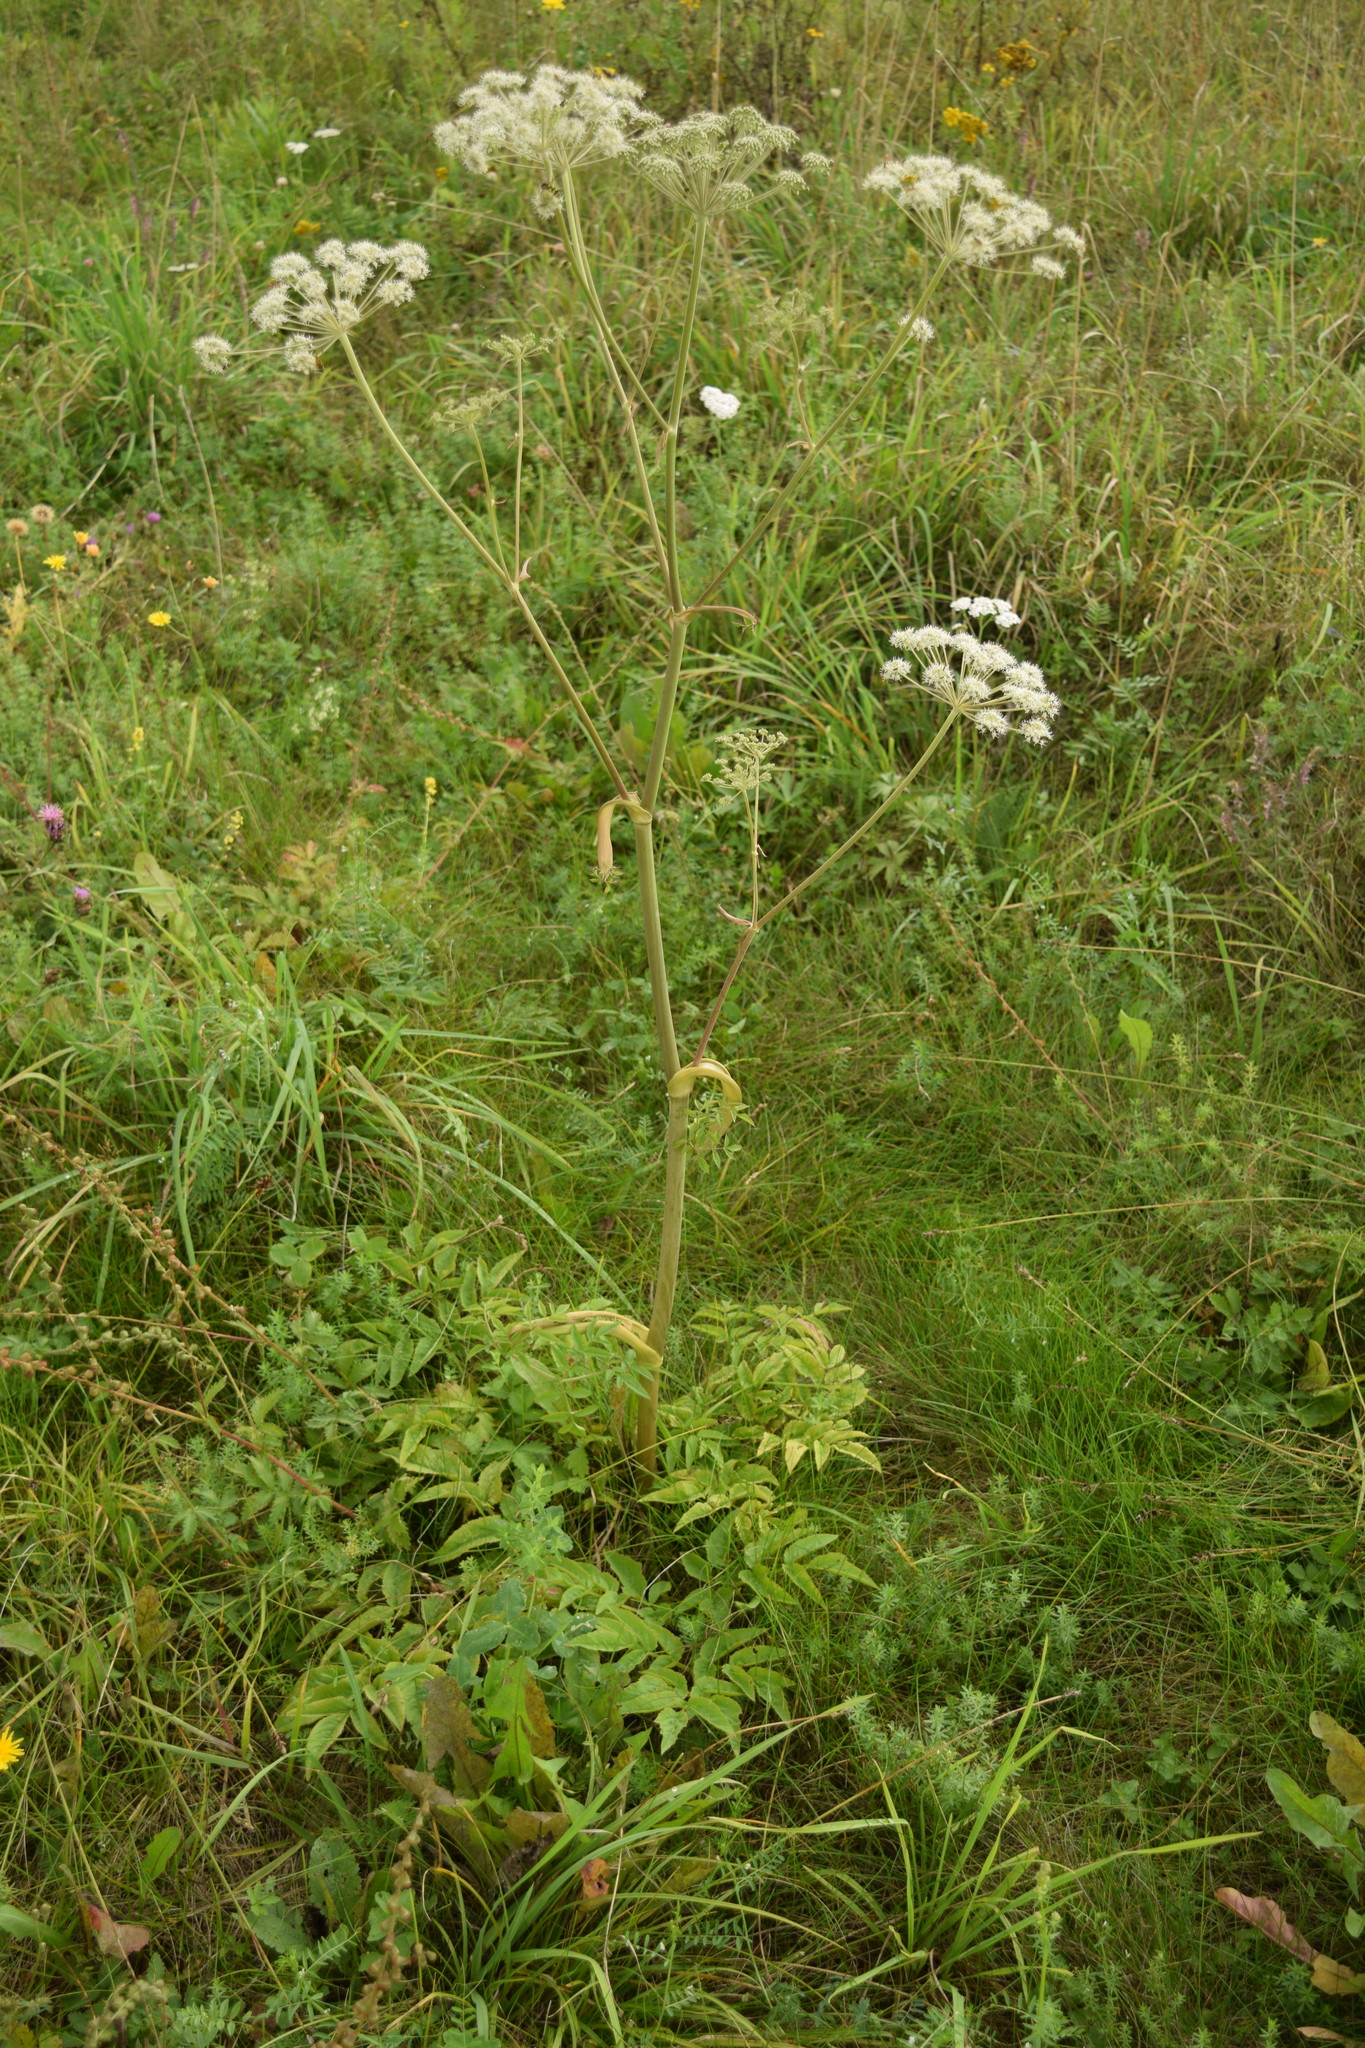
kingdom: Plantae
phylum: Tracheophyta
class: Magnoliopsida
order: Apiales
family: Apiaceae
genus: Angelica
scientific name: Angelica sylvestris
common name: Wild angelica
